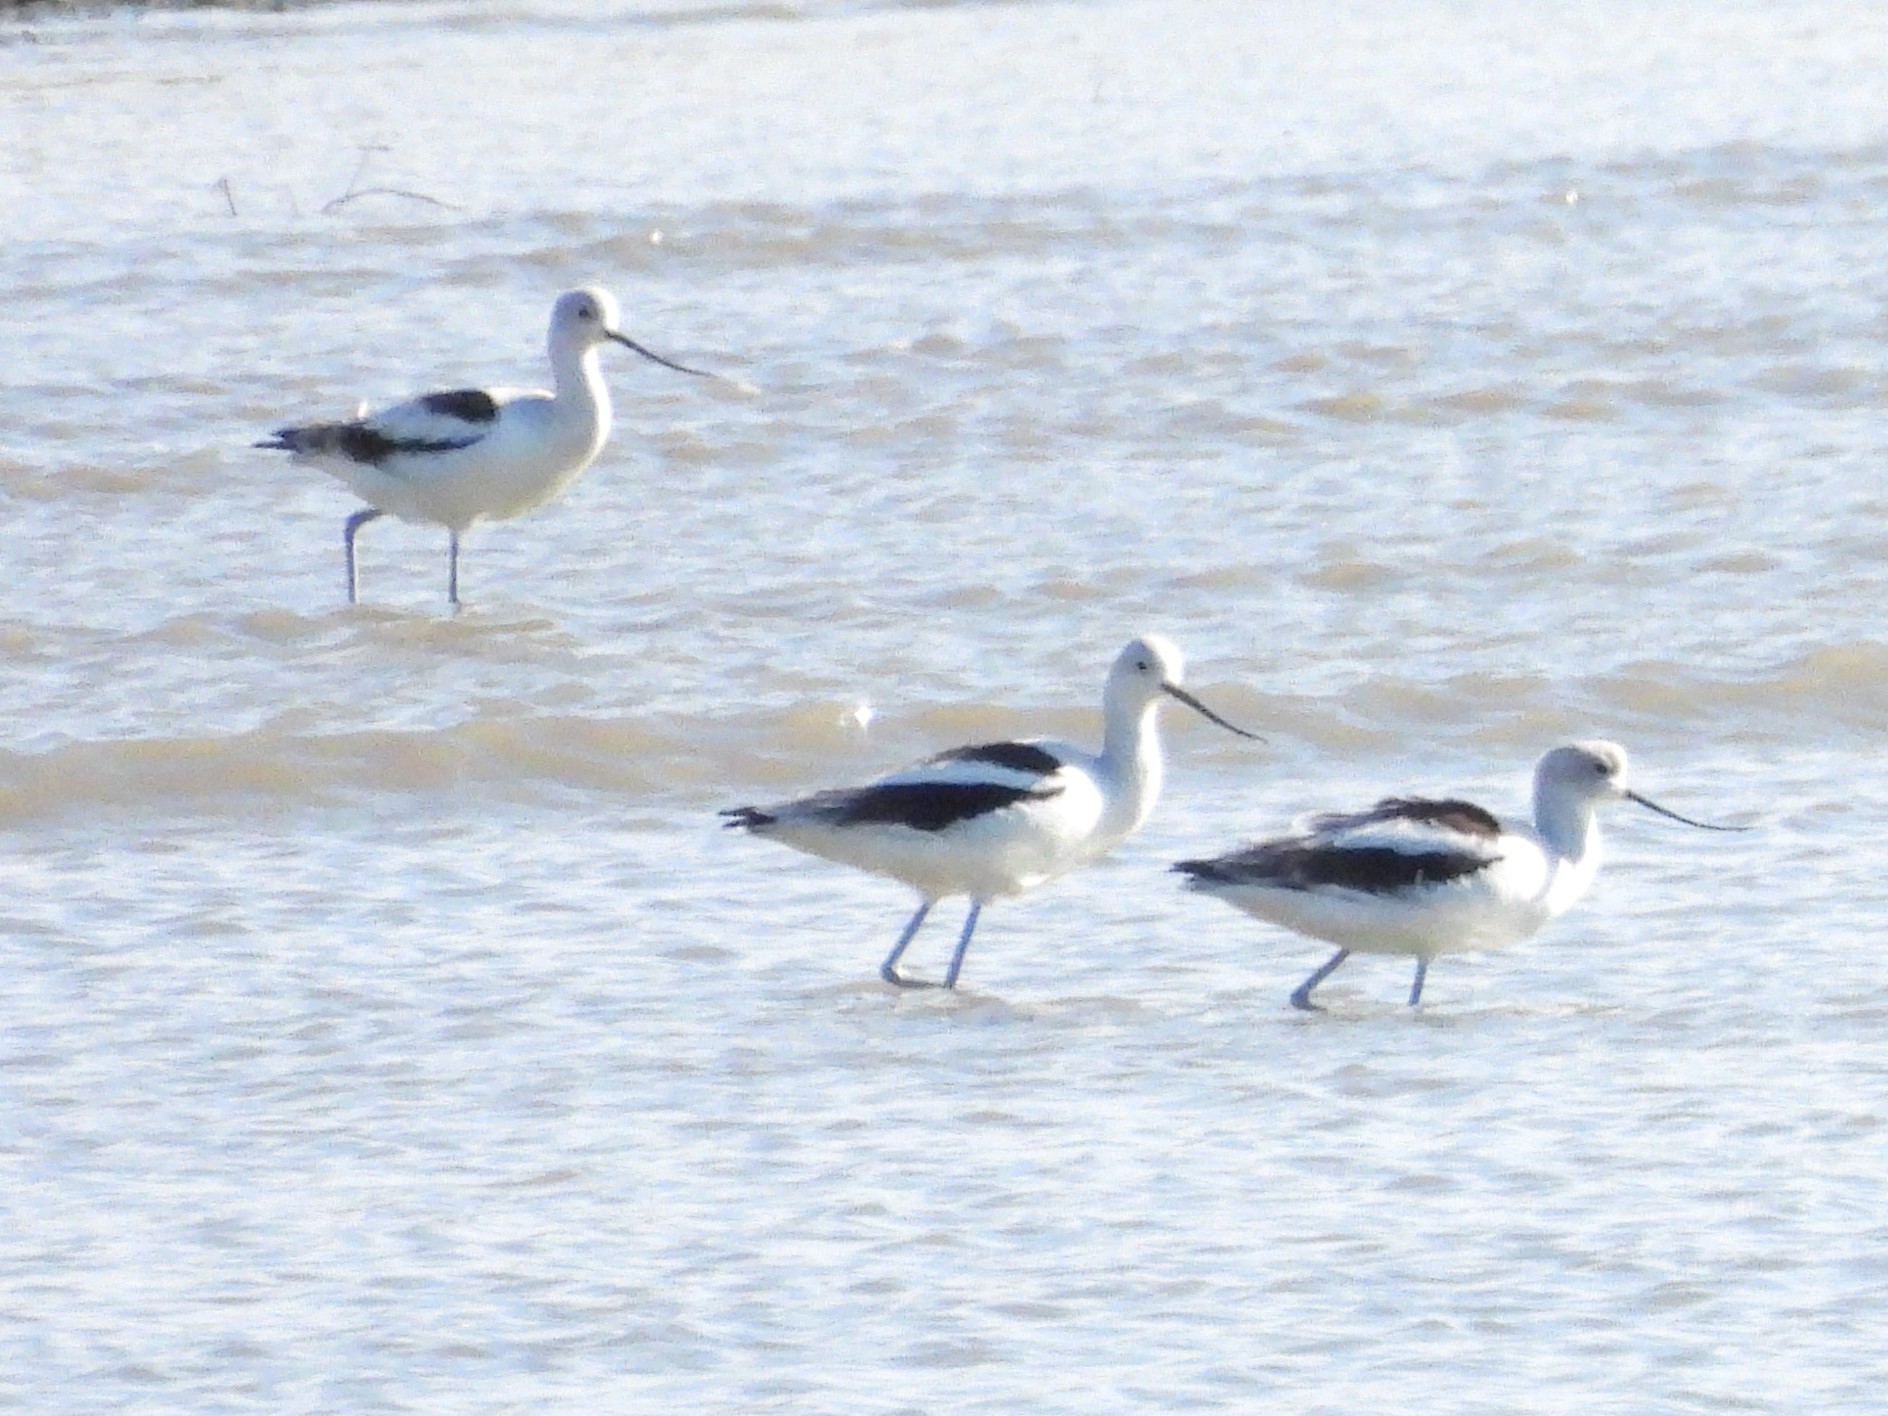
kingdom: Animalia
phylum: Chordata
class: Aves
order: Charadriiformes
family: Recurvirostridae
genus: Recurvirostra
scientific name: Recurvirostra americana
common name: American avocet
